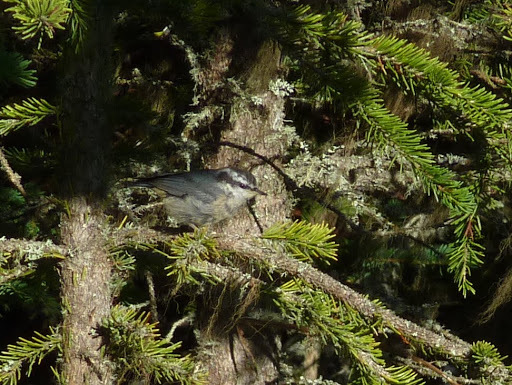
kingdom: Animalia
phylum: Chordata
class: Aves
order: Passeriformes
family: Sittidae
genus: Sitta
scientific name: Sitta canadensis
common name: Red-breasted nuthatch
